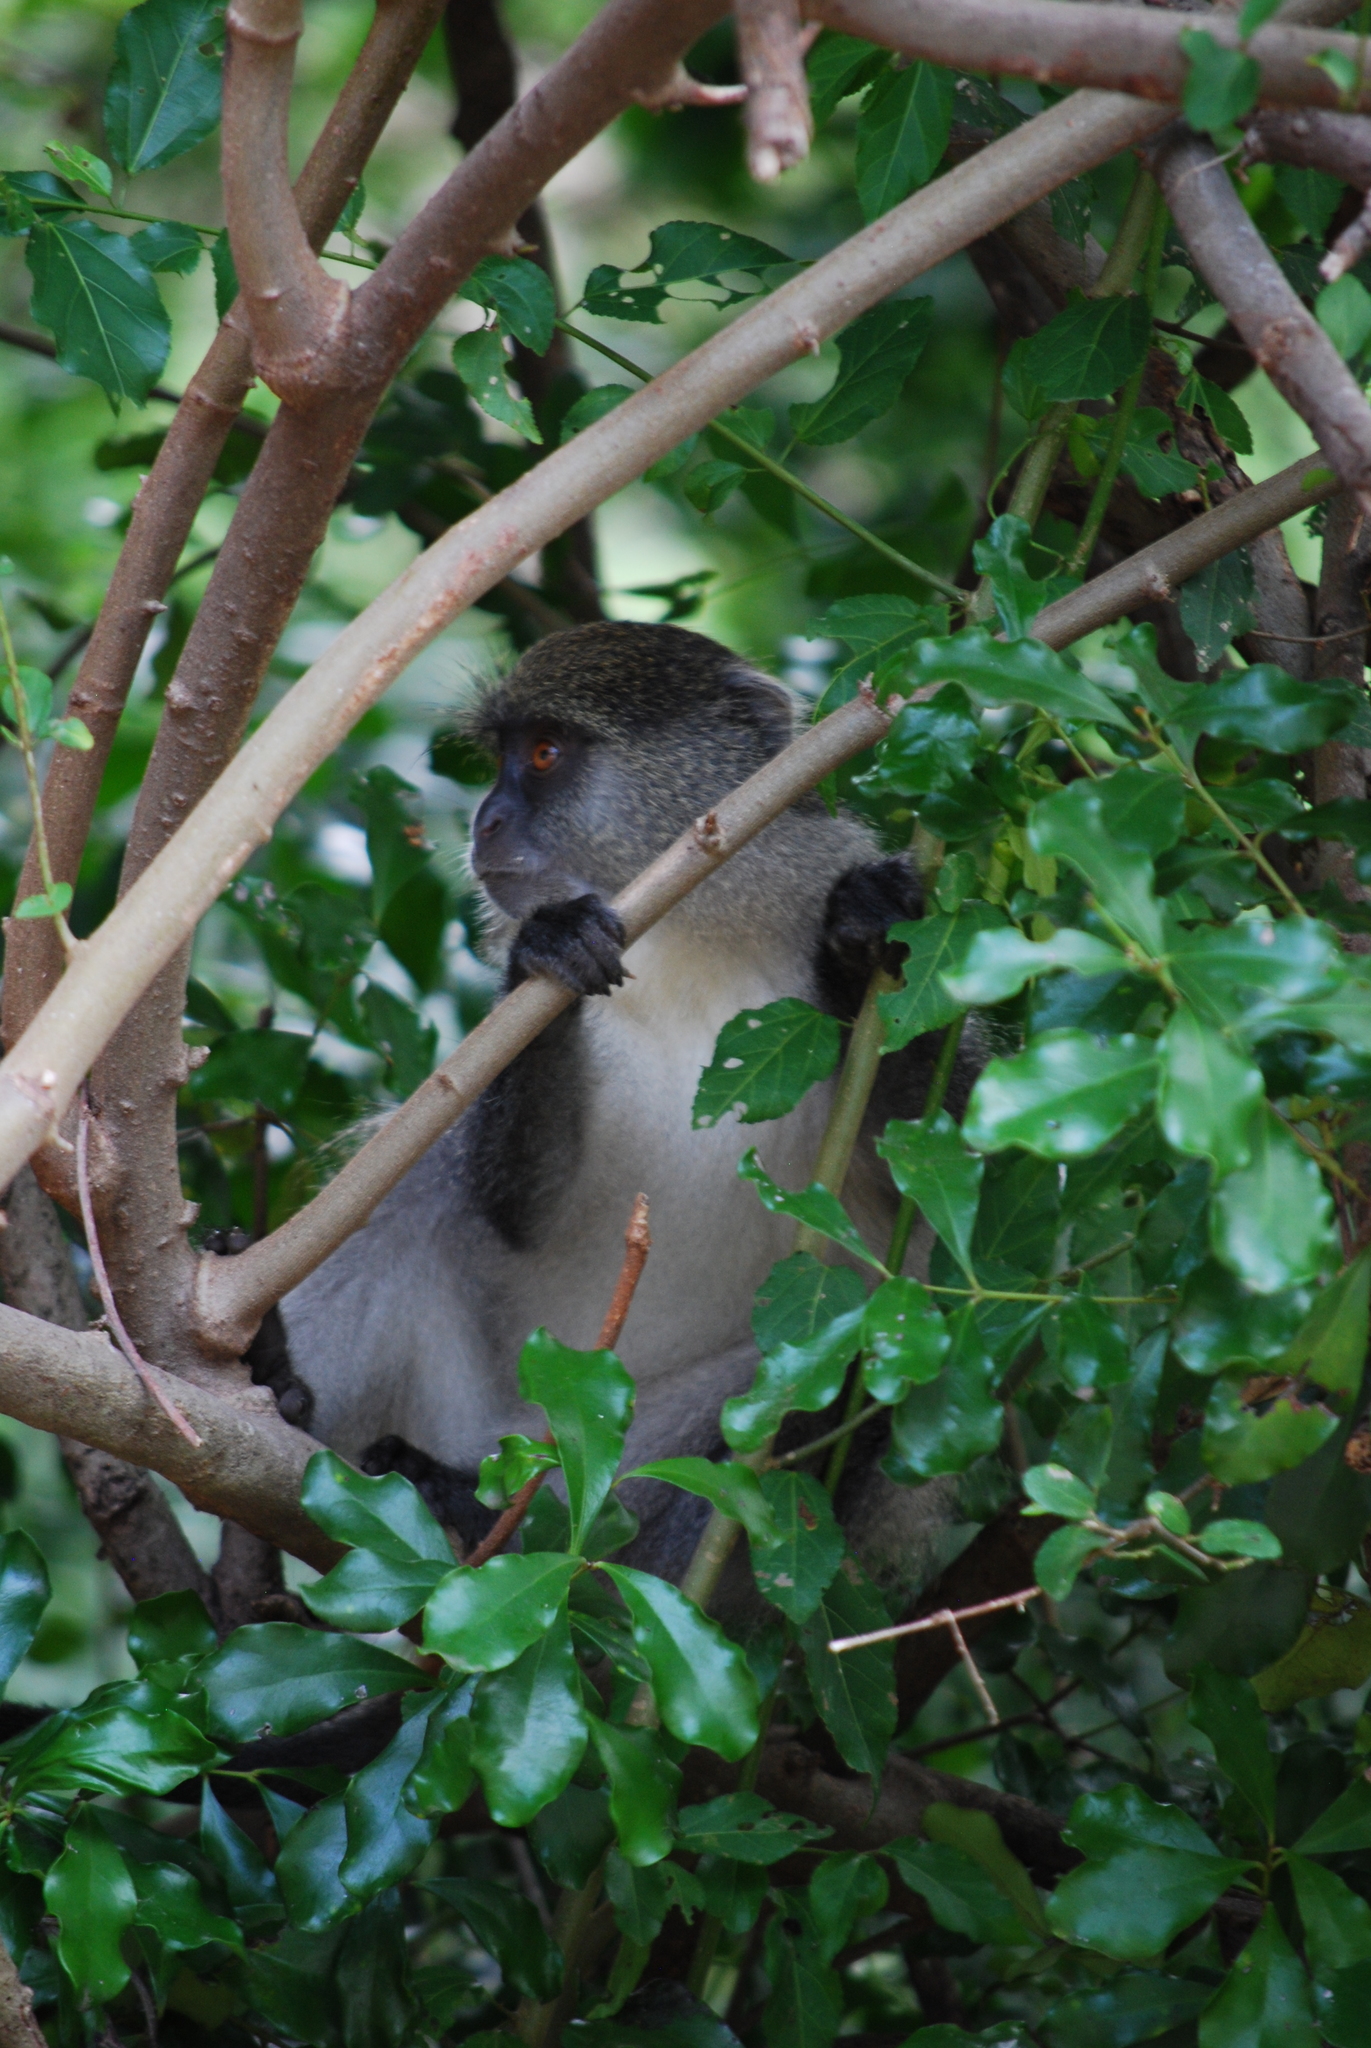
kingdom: Animalia
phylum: Chordata
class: Mammalia
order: Primates
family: Cercopithecidae
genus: Cercopithecus
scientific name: Cercopithecus mitis
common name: Blue monkey
